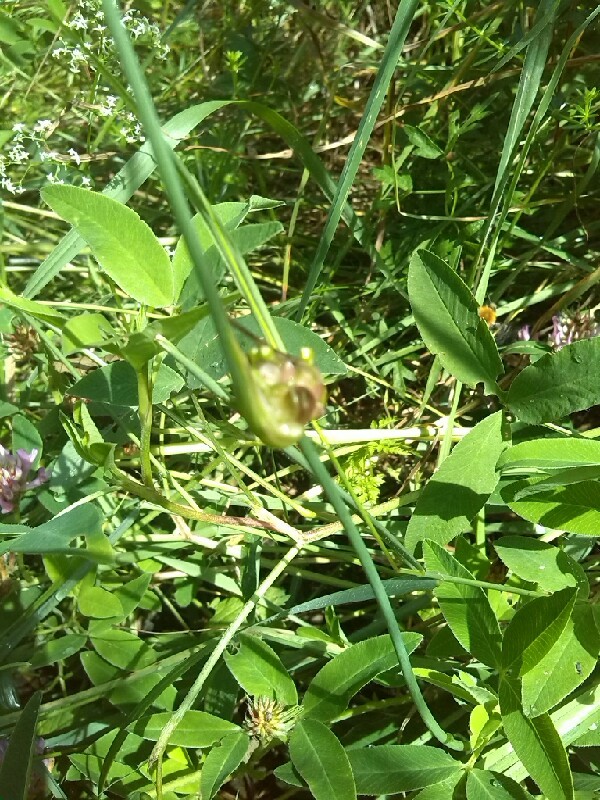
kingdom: Plantae
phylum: Tracheophyta
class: Liliopsida
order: Asparagales
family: Amaryllidaceae
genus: Allium
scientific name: Allium oleraceum
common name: Field garlic
